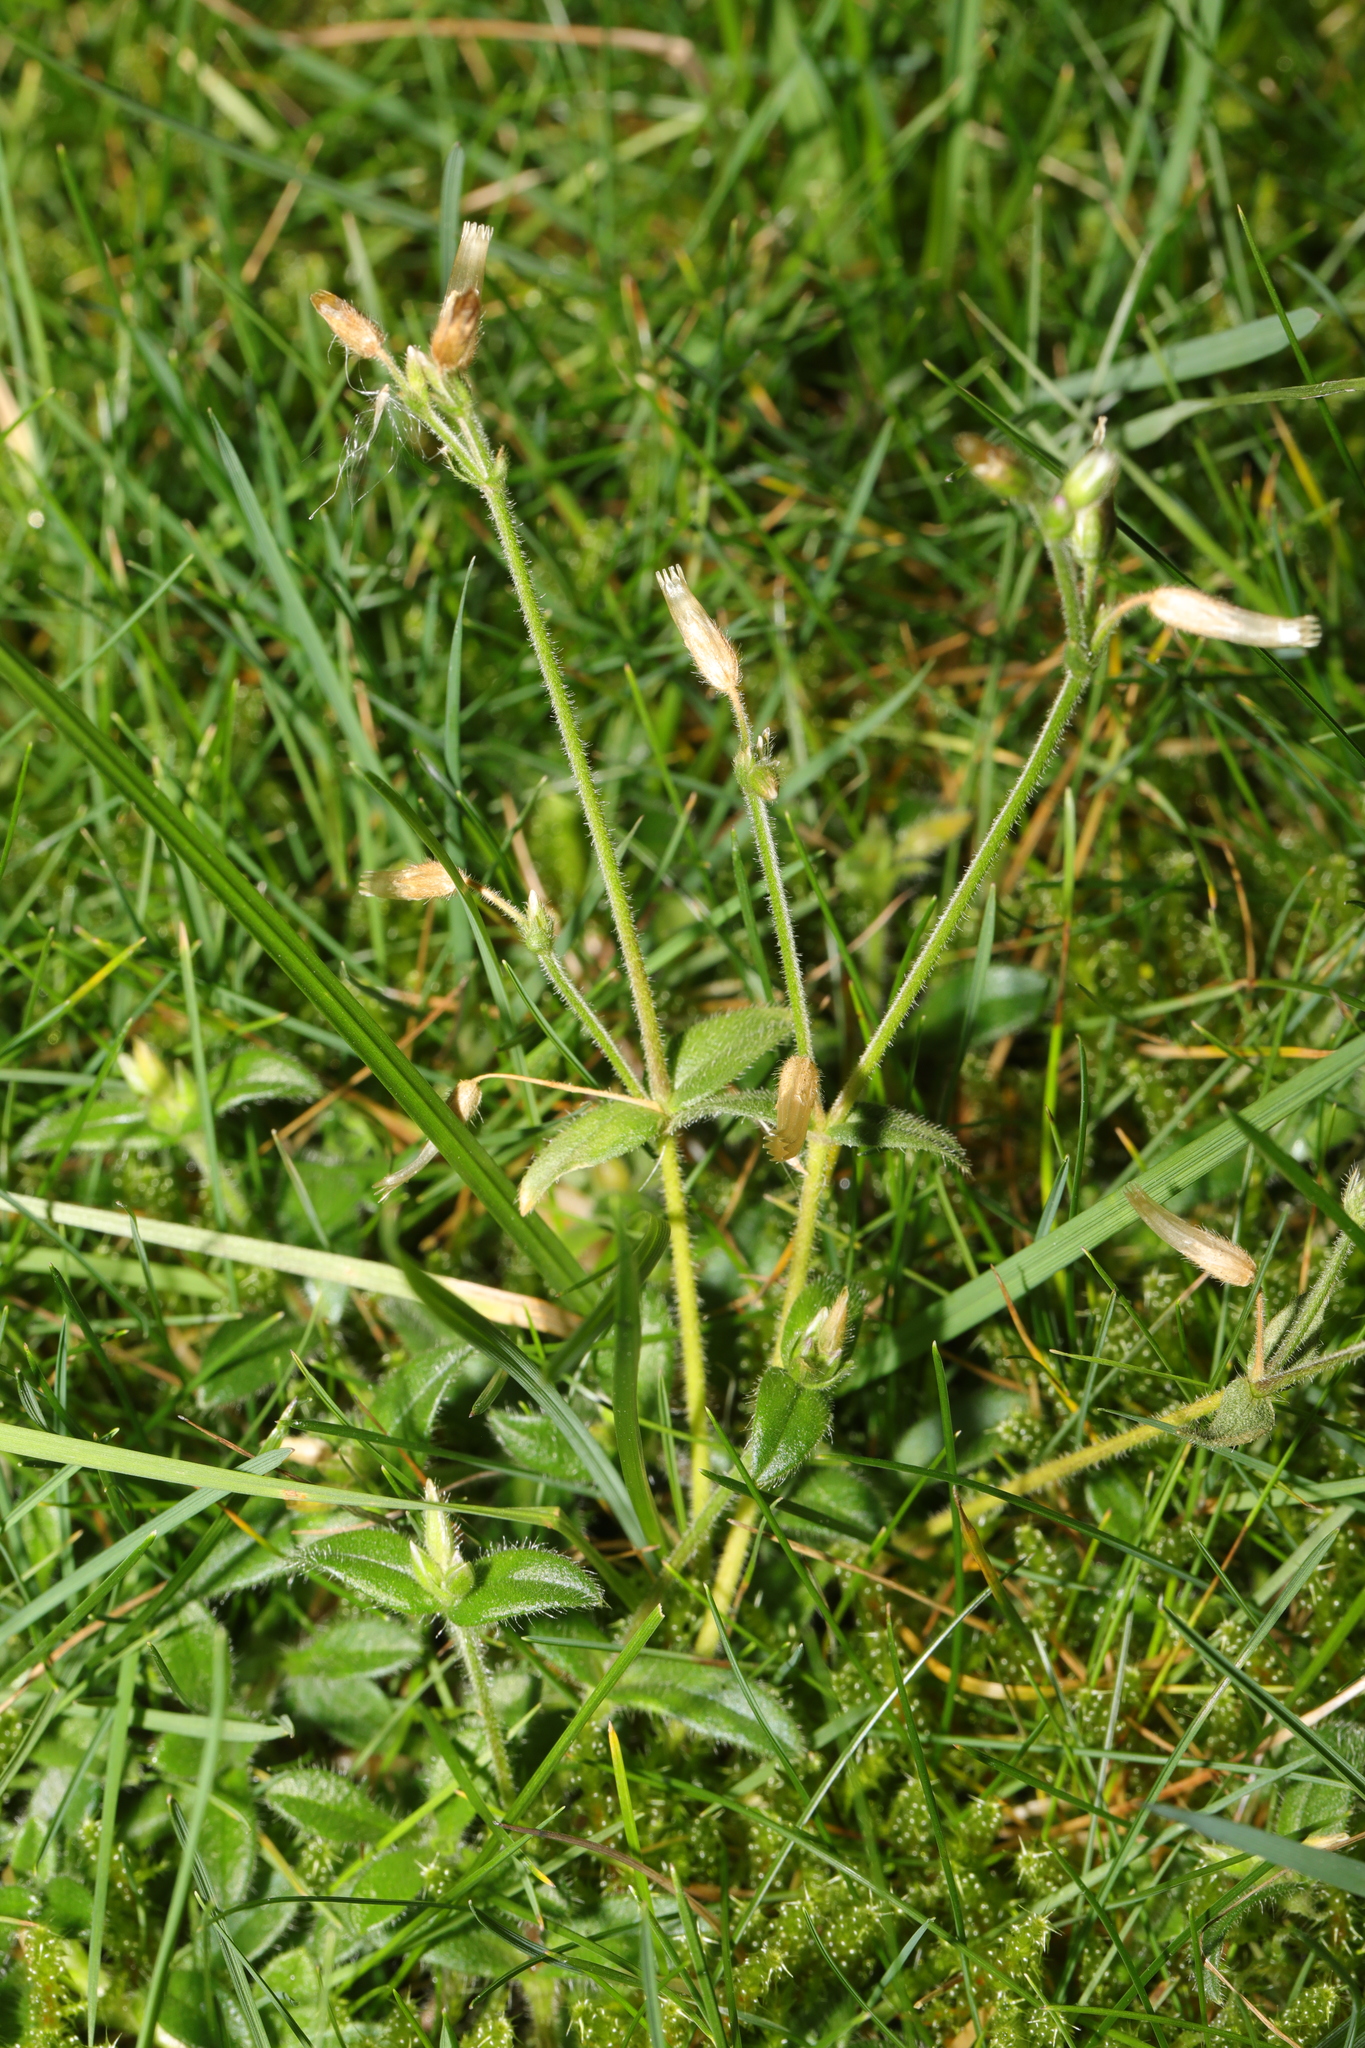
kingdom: Plantae
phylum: Tracheophyta
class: Magnoliopsida
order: Caryophyllales
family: Caryophyllaceae
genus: Cerastium
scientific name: Cerastium fontanum
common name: Common mouse-ear
